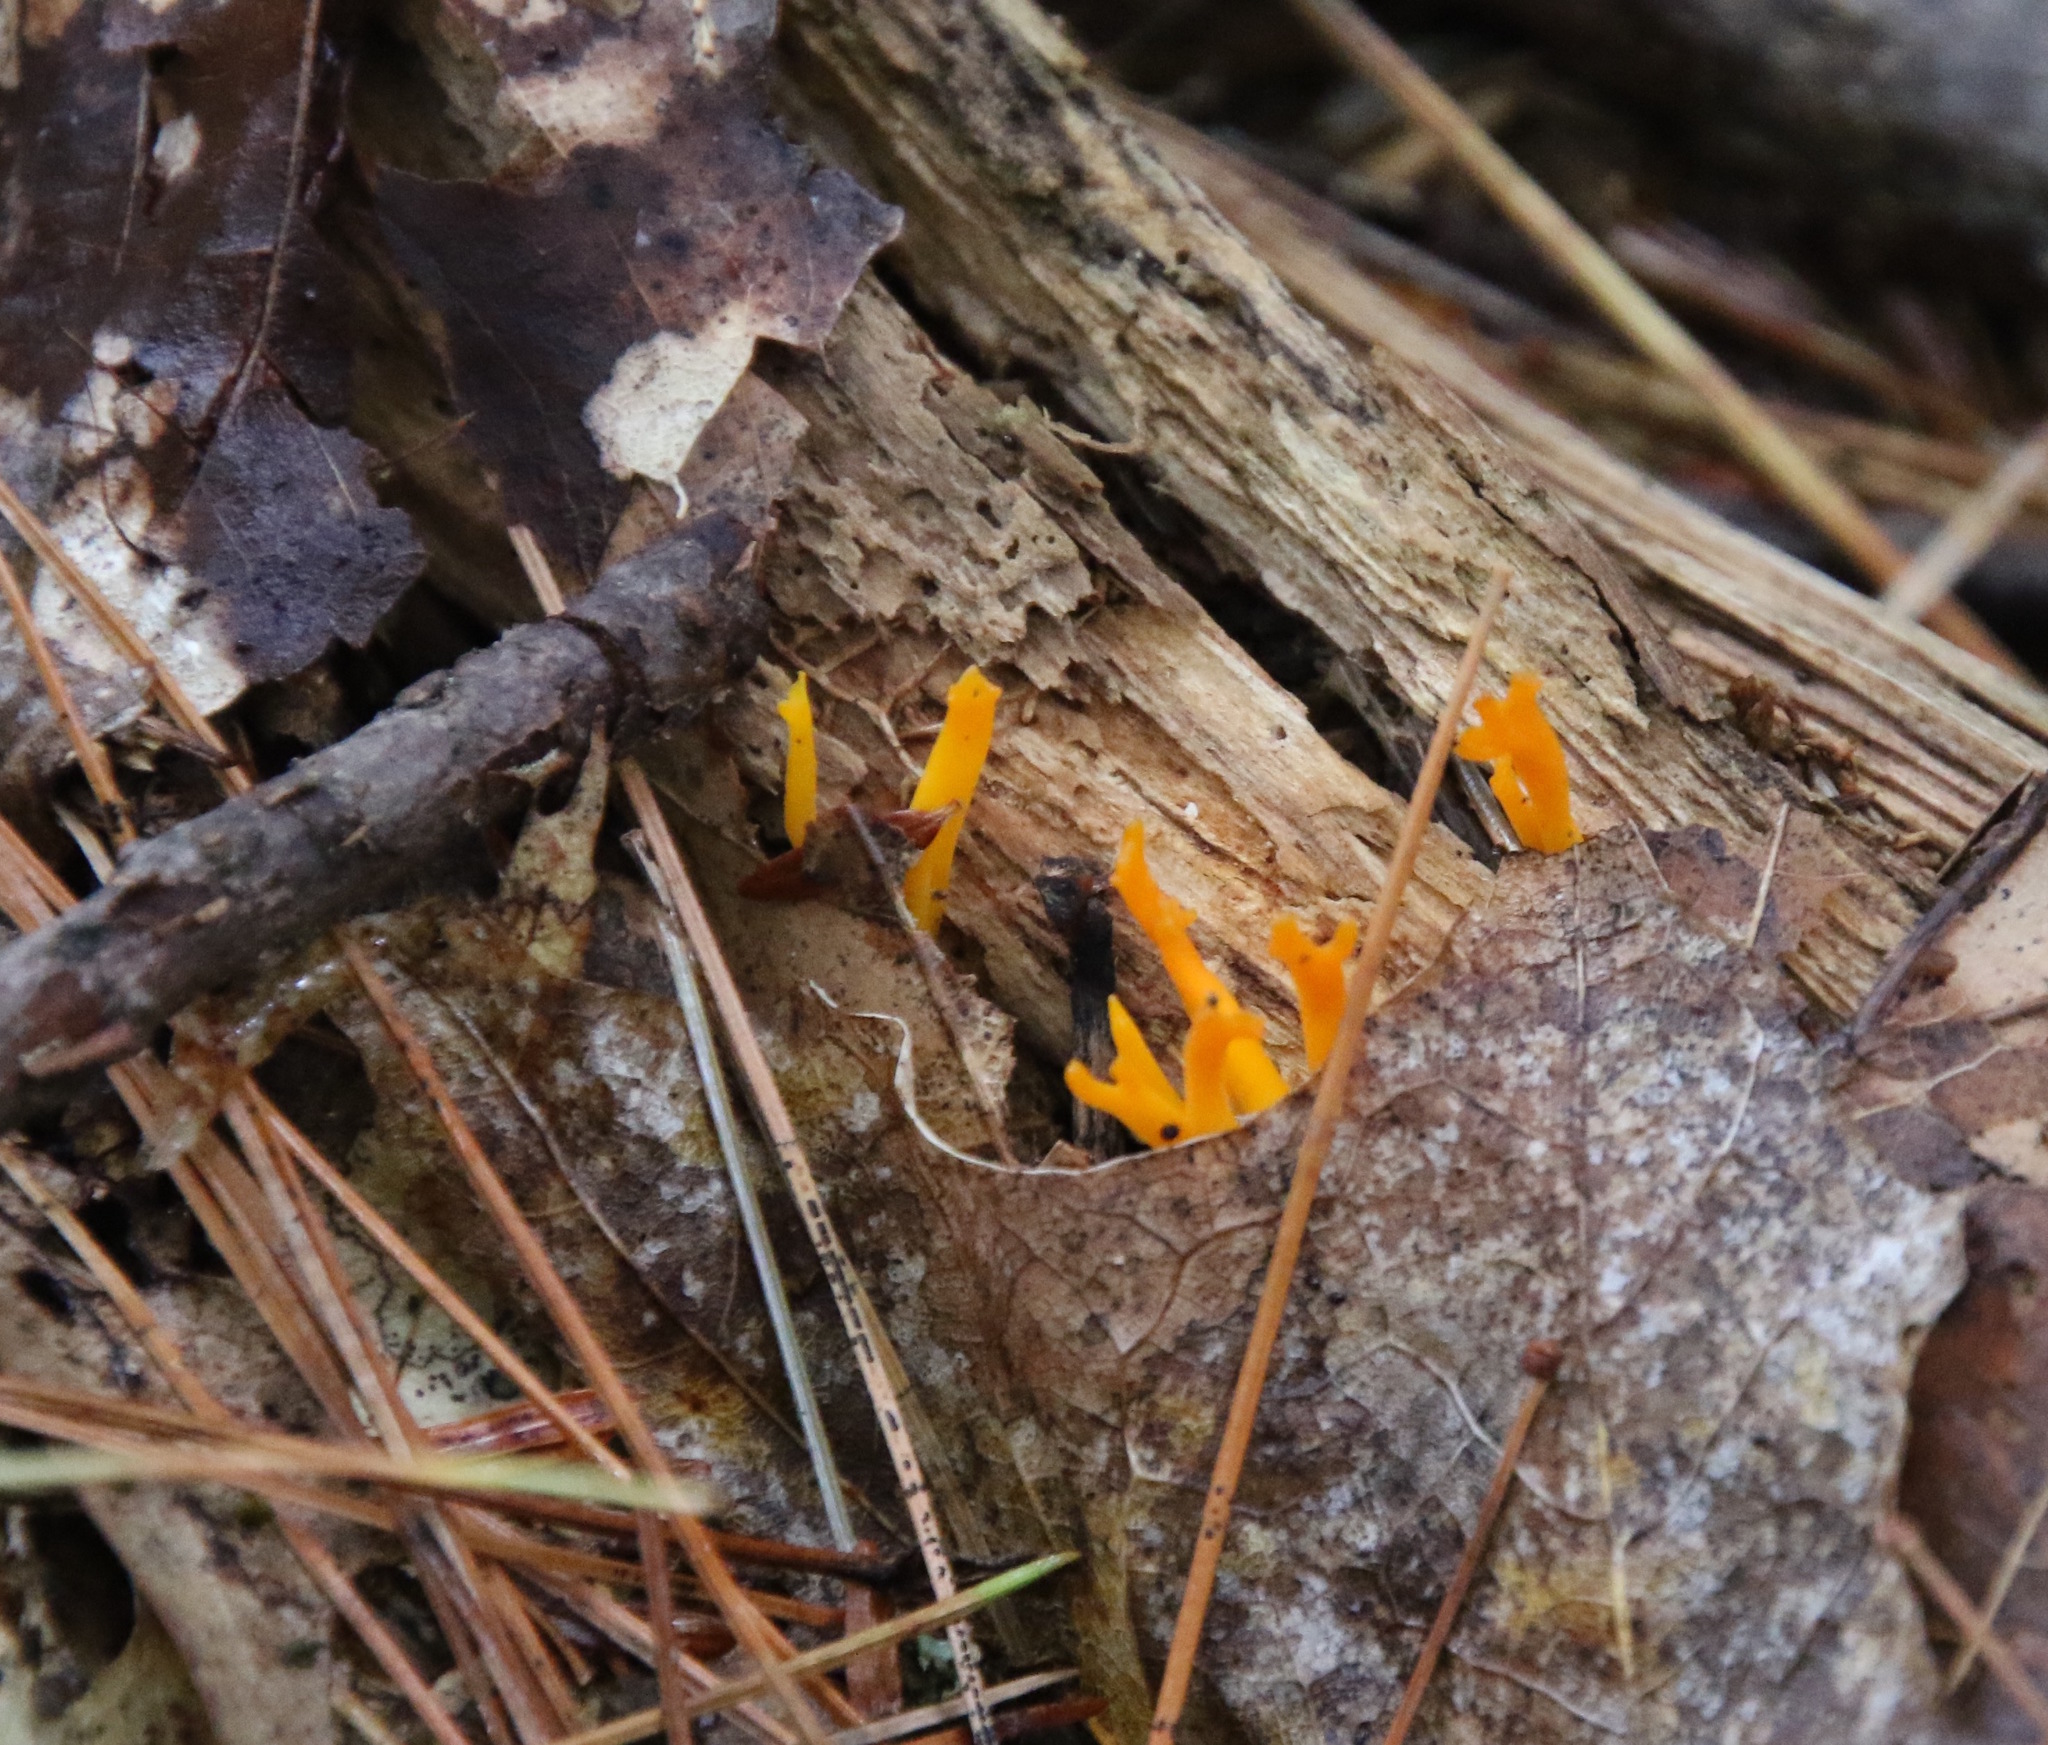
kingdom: Fungi
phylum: Basidiomycota
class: Dacrymycetes
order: Dacrymycetales
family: Dacrymycetaceae
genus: Calocera
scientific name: Calocera viscosa
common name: Yellow stagshorn
